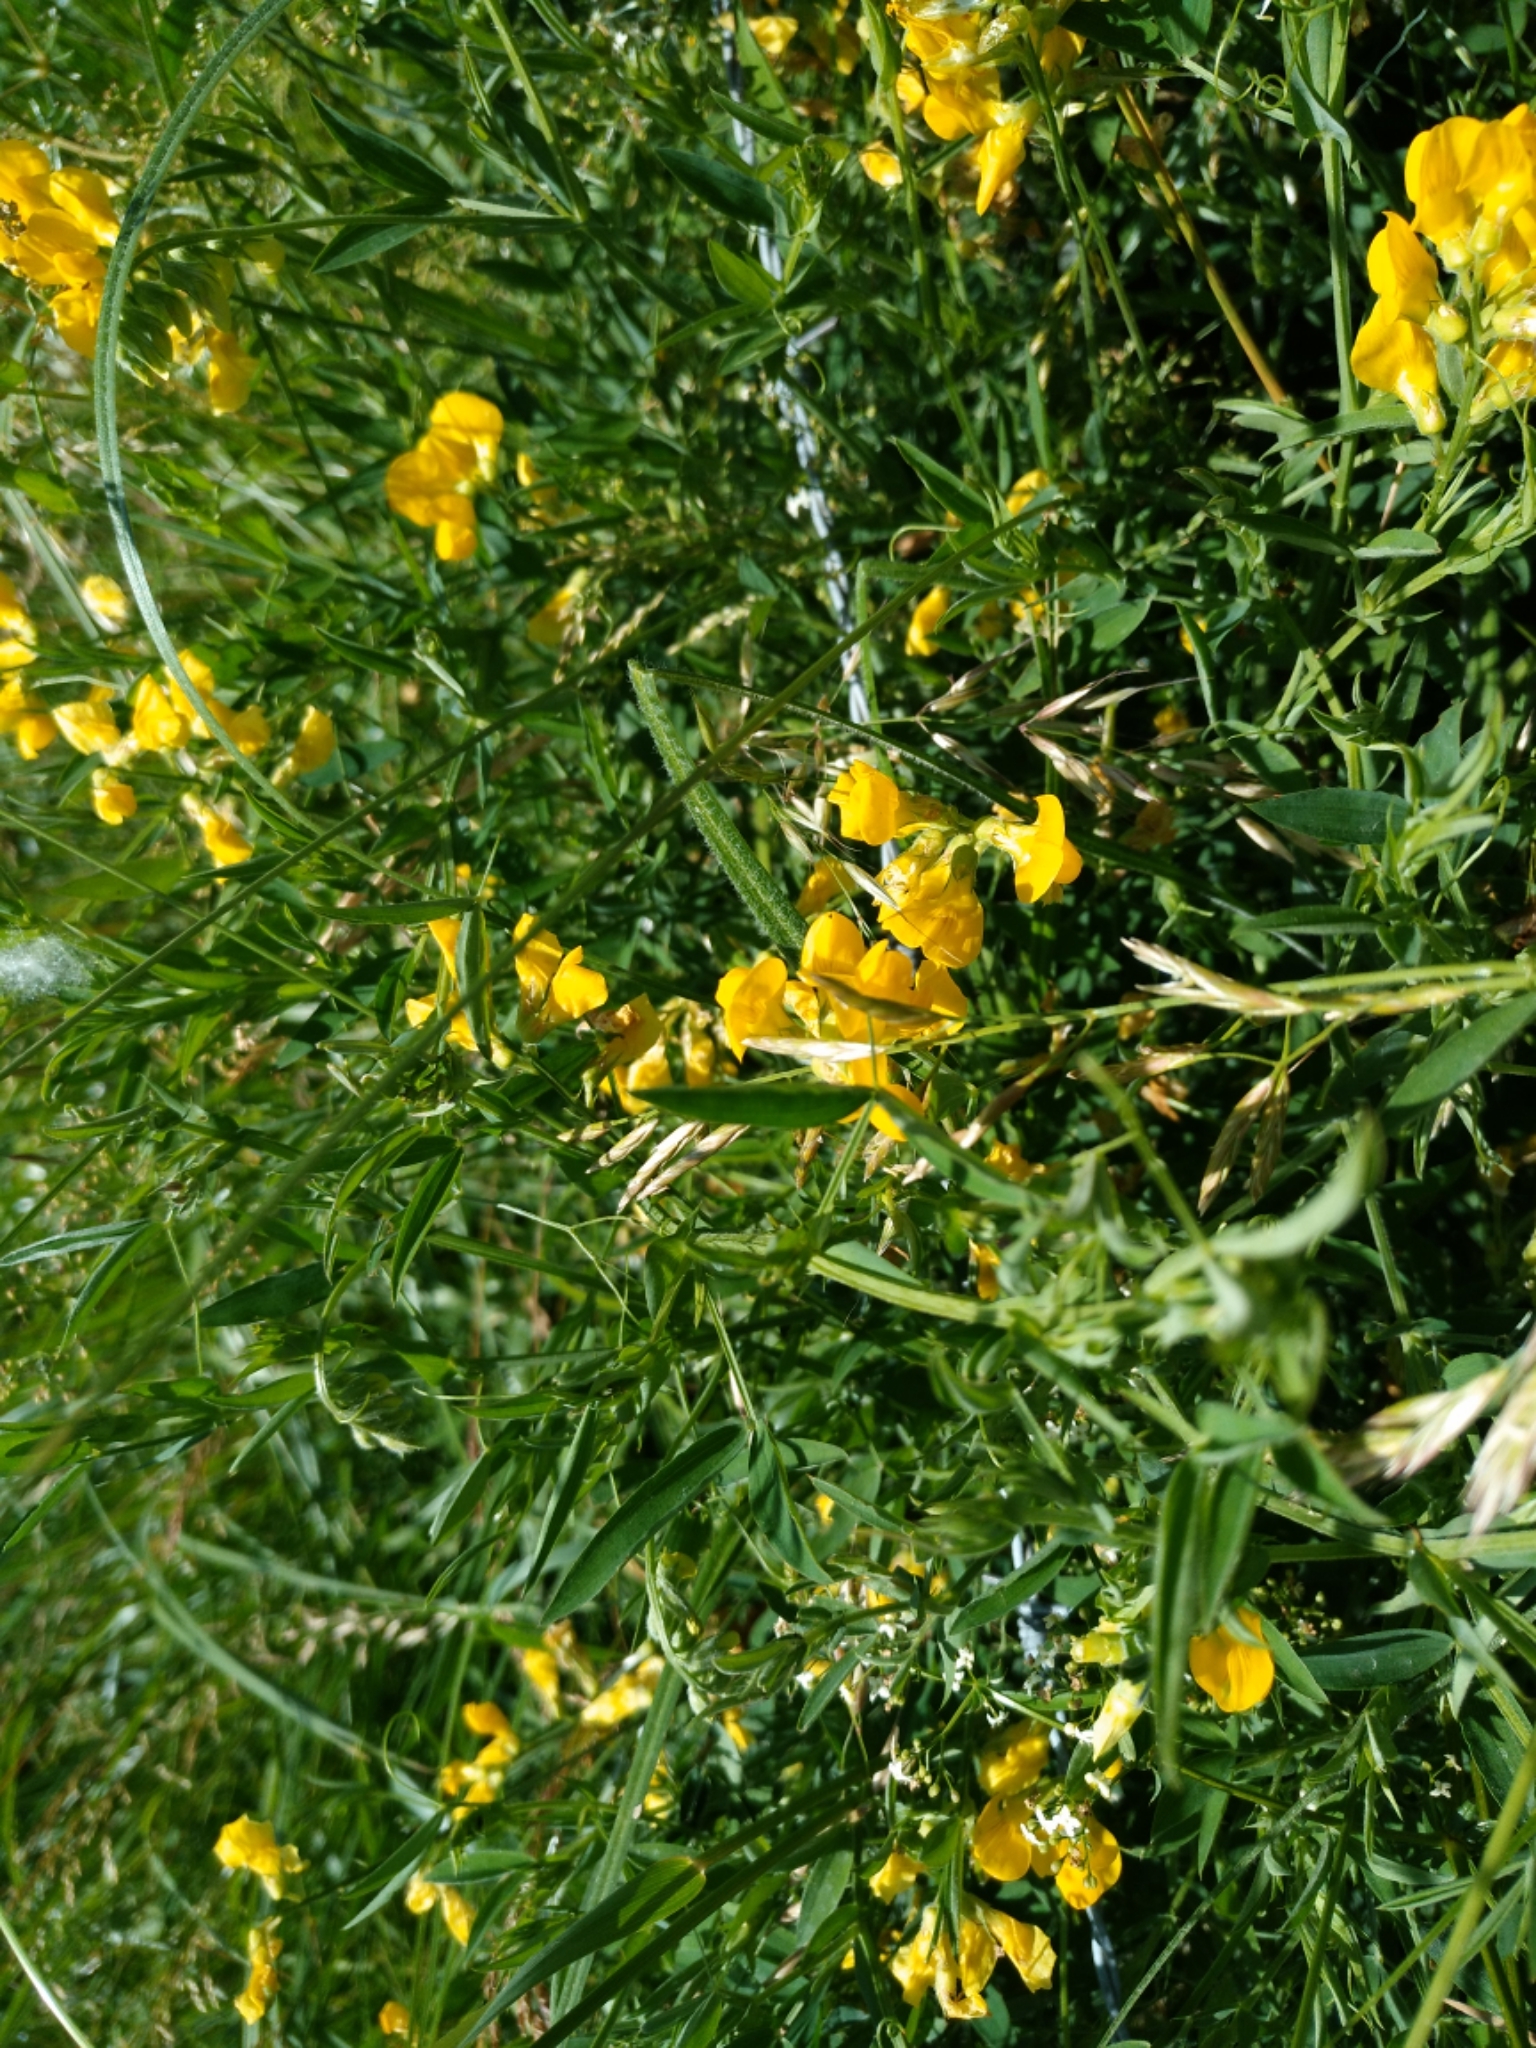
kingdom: Plantae
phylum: Tracheophyta
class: Magnoliopsida
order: Fabales
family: Fabaceae
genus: Lathyrus
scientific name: Lathyrus pratensis
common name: Meadow vetchling
